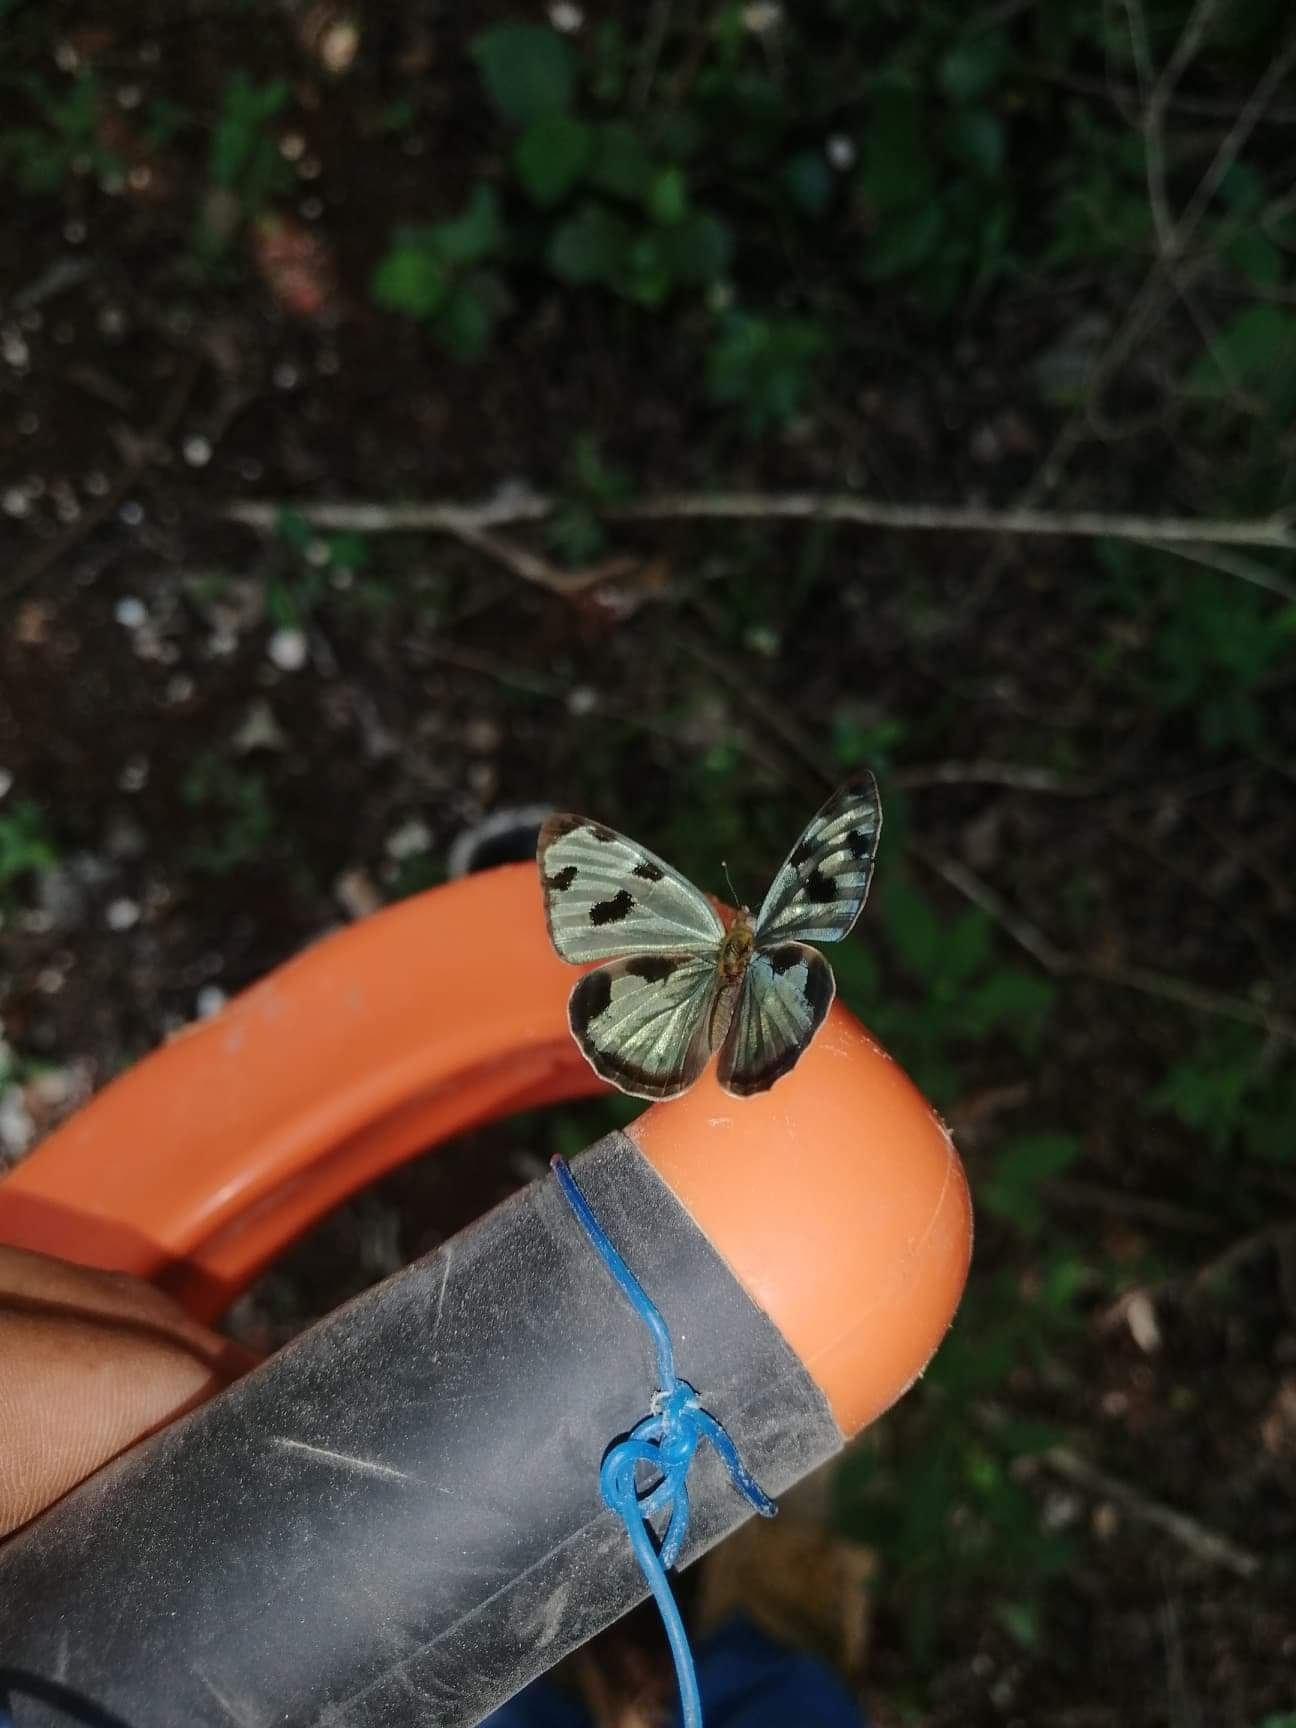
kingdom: Animalia
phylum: Arthropoda
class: Insecta
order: Lepidoptera
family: Nymphalidae
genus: Dynamine
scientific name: Dynamine mylitta
